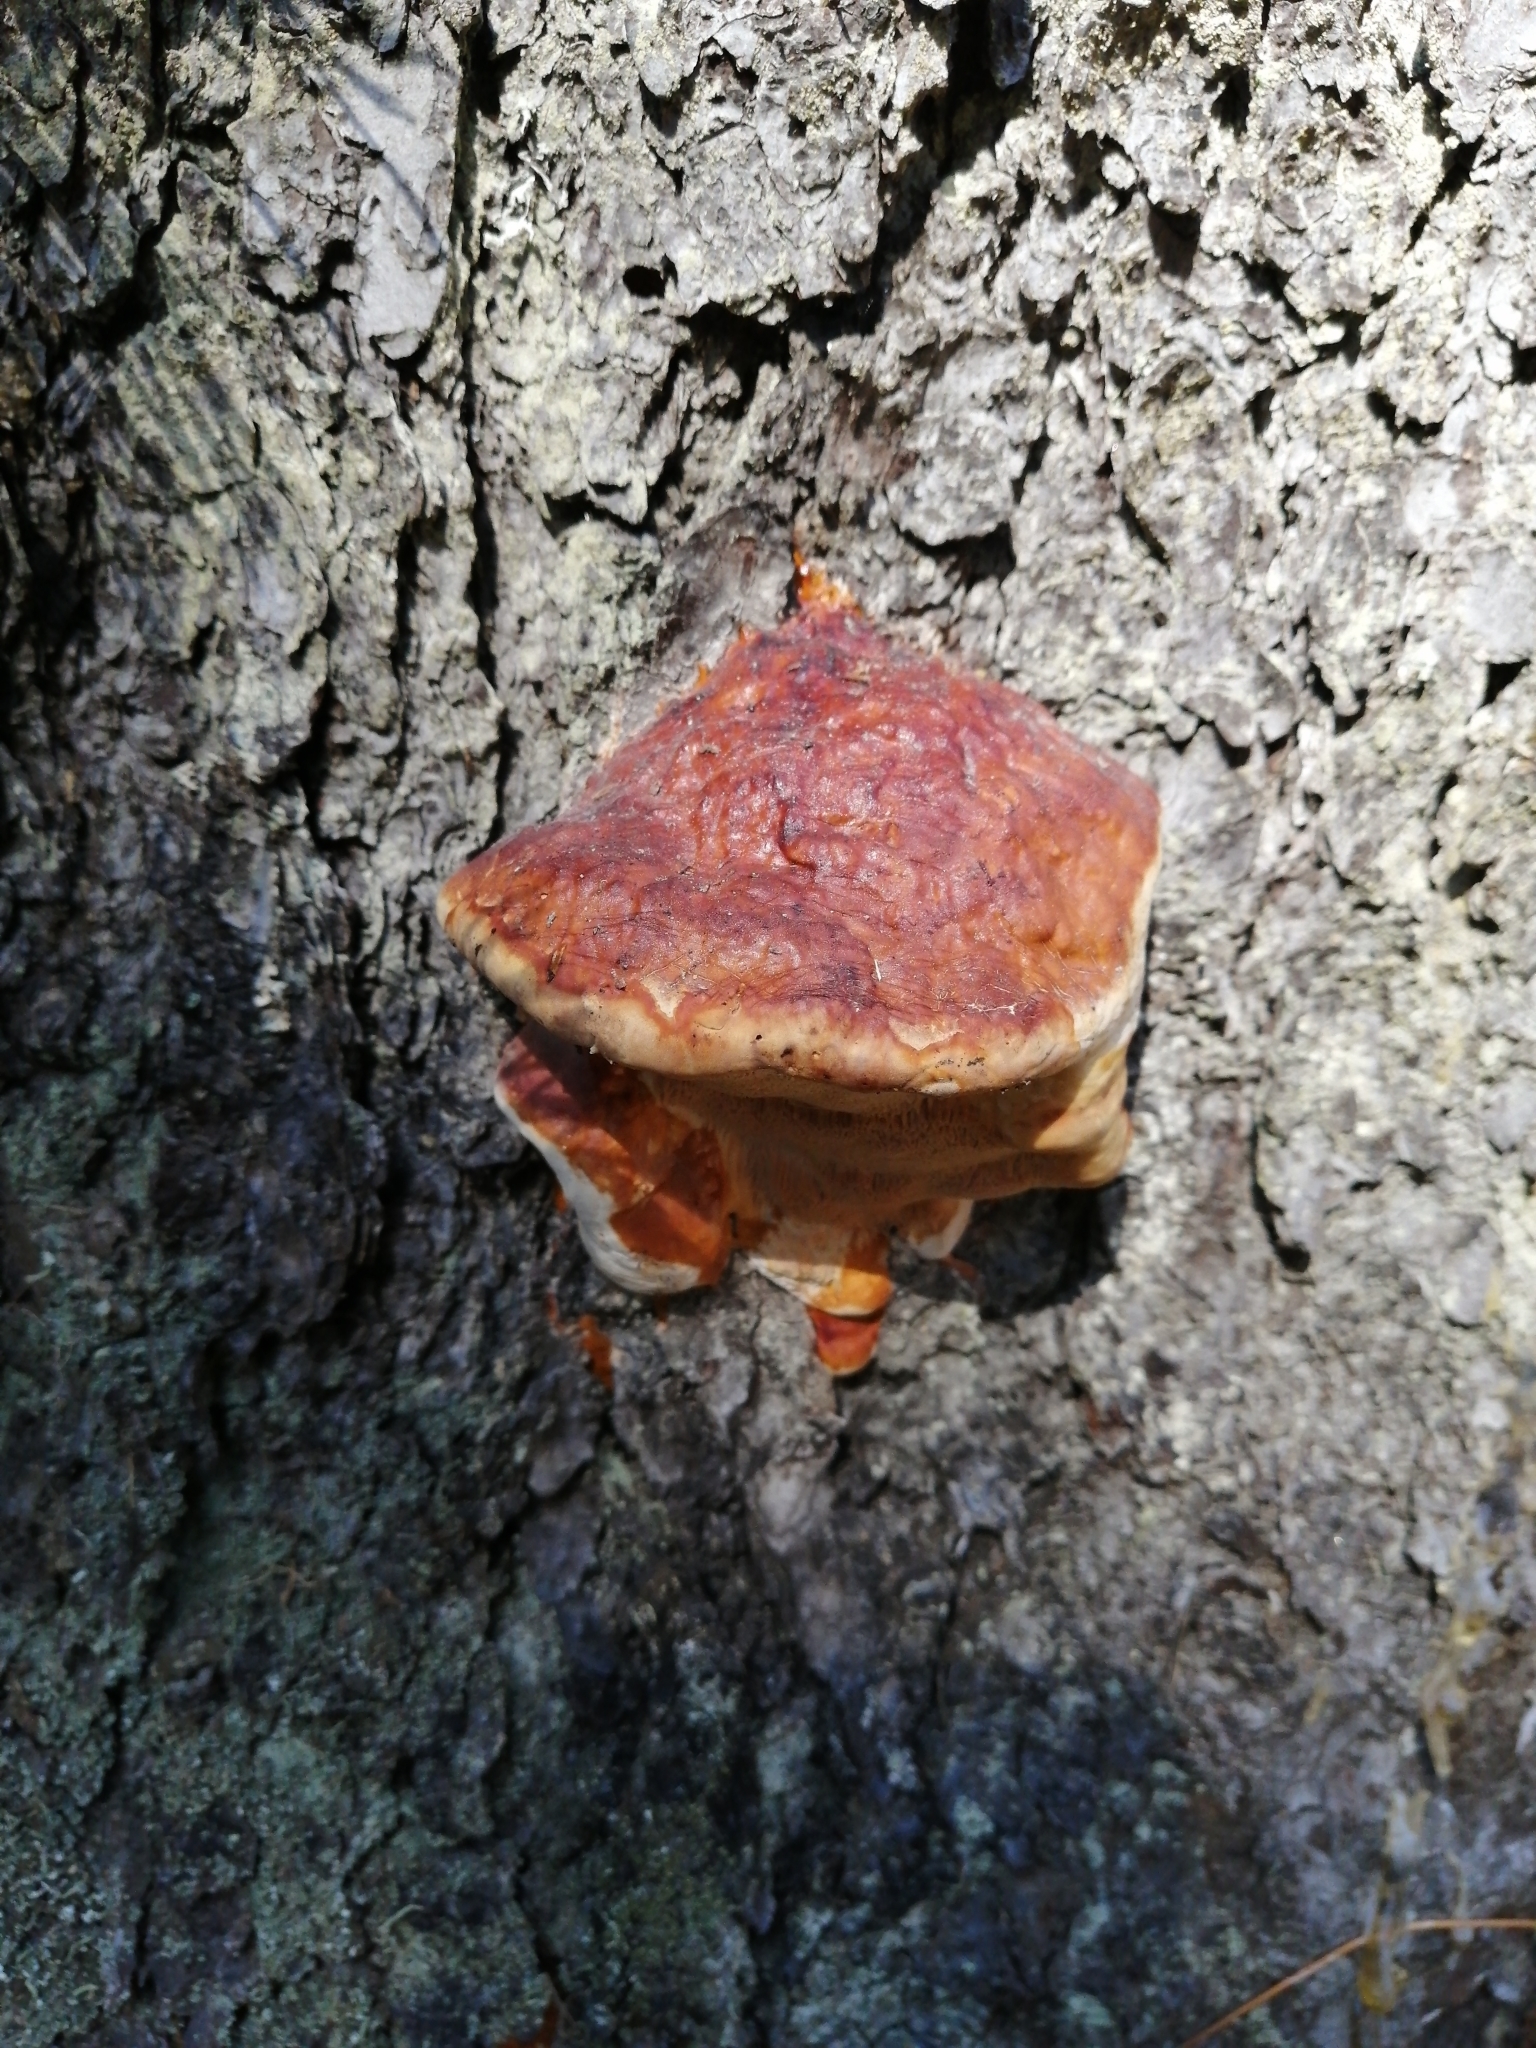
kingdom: Fungi
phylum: Basidiomycota
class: Agaricomycetes
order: Polyporales
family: Fomitopsidaceae
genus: Fomitopsis
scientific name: Fomitopsis pinicola
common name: Red-belted bracket
